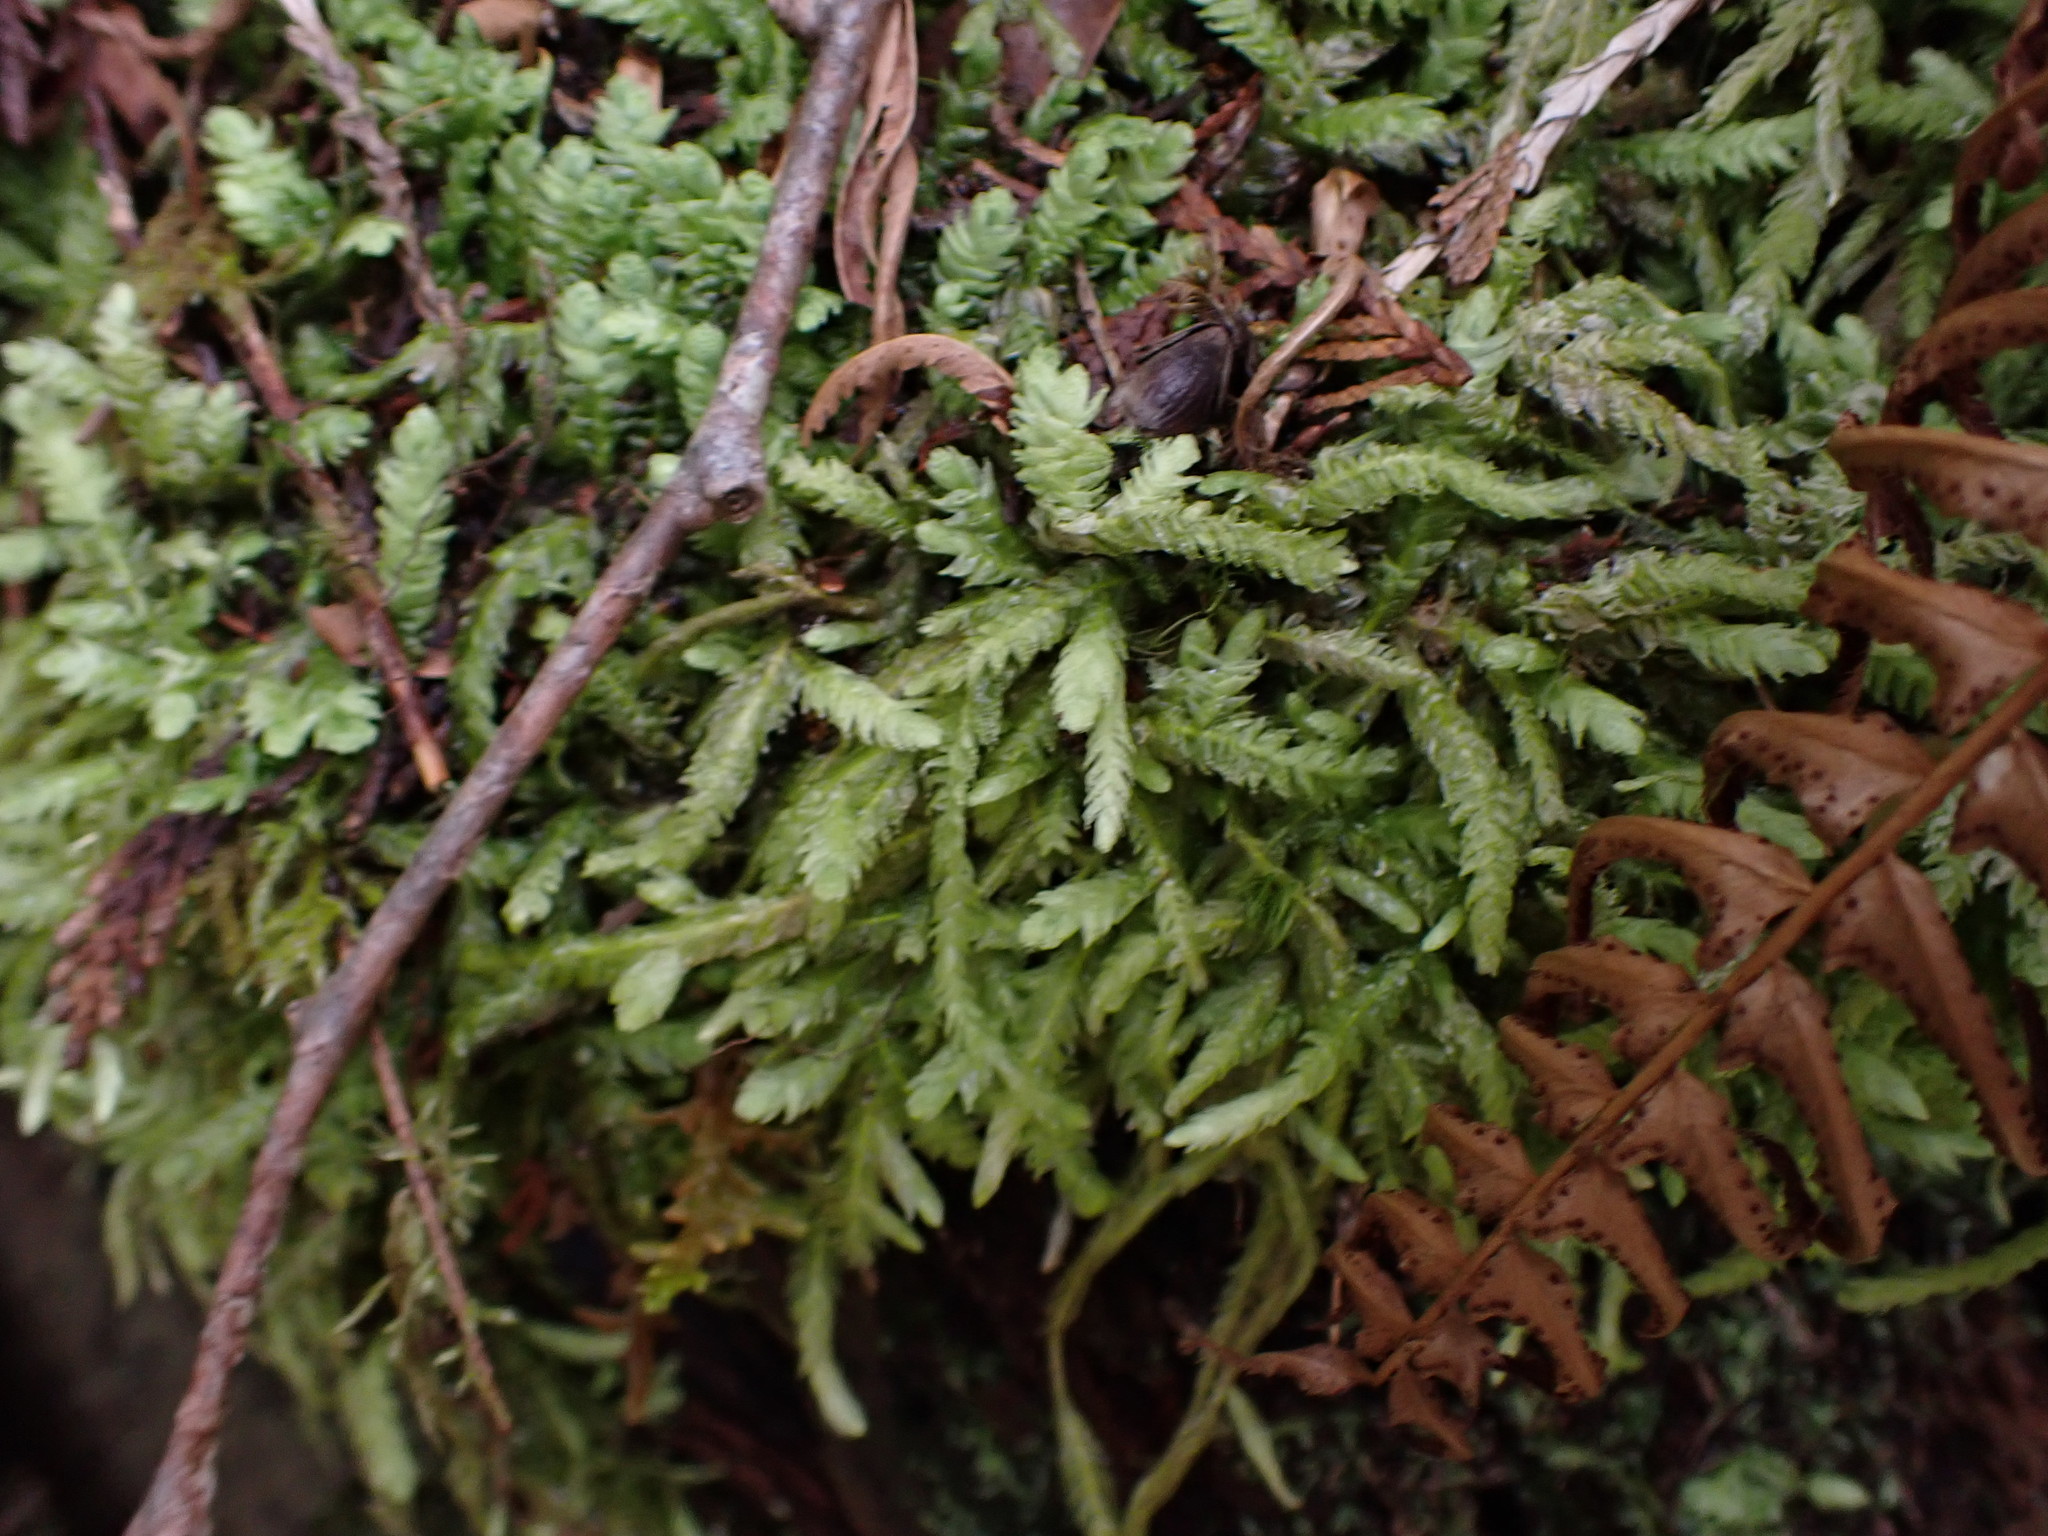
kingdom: Plantae
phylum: Bryophyta
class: Bryopsida
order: Hypnales
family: Plagiotheciaceae
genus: Plagiothecium
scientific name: Plagiothecium undulatum
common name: Waved silk-moss
